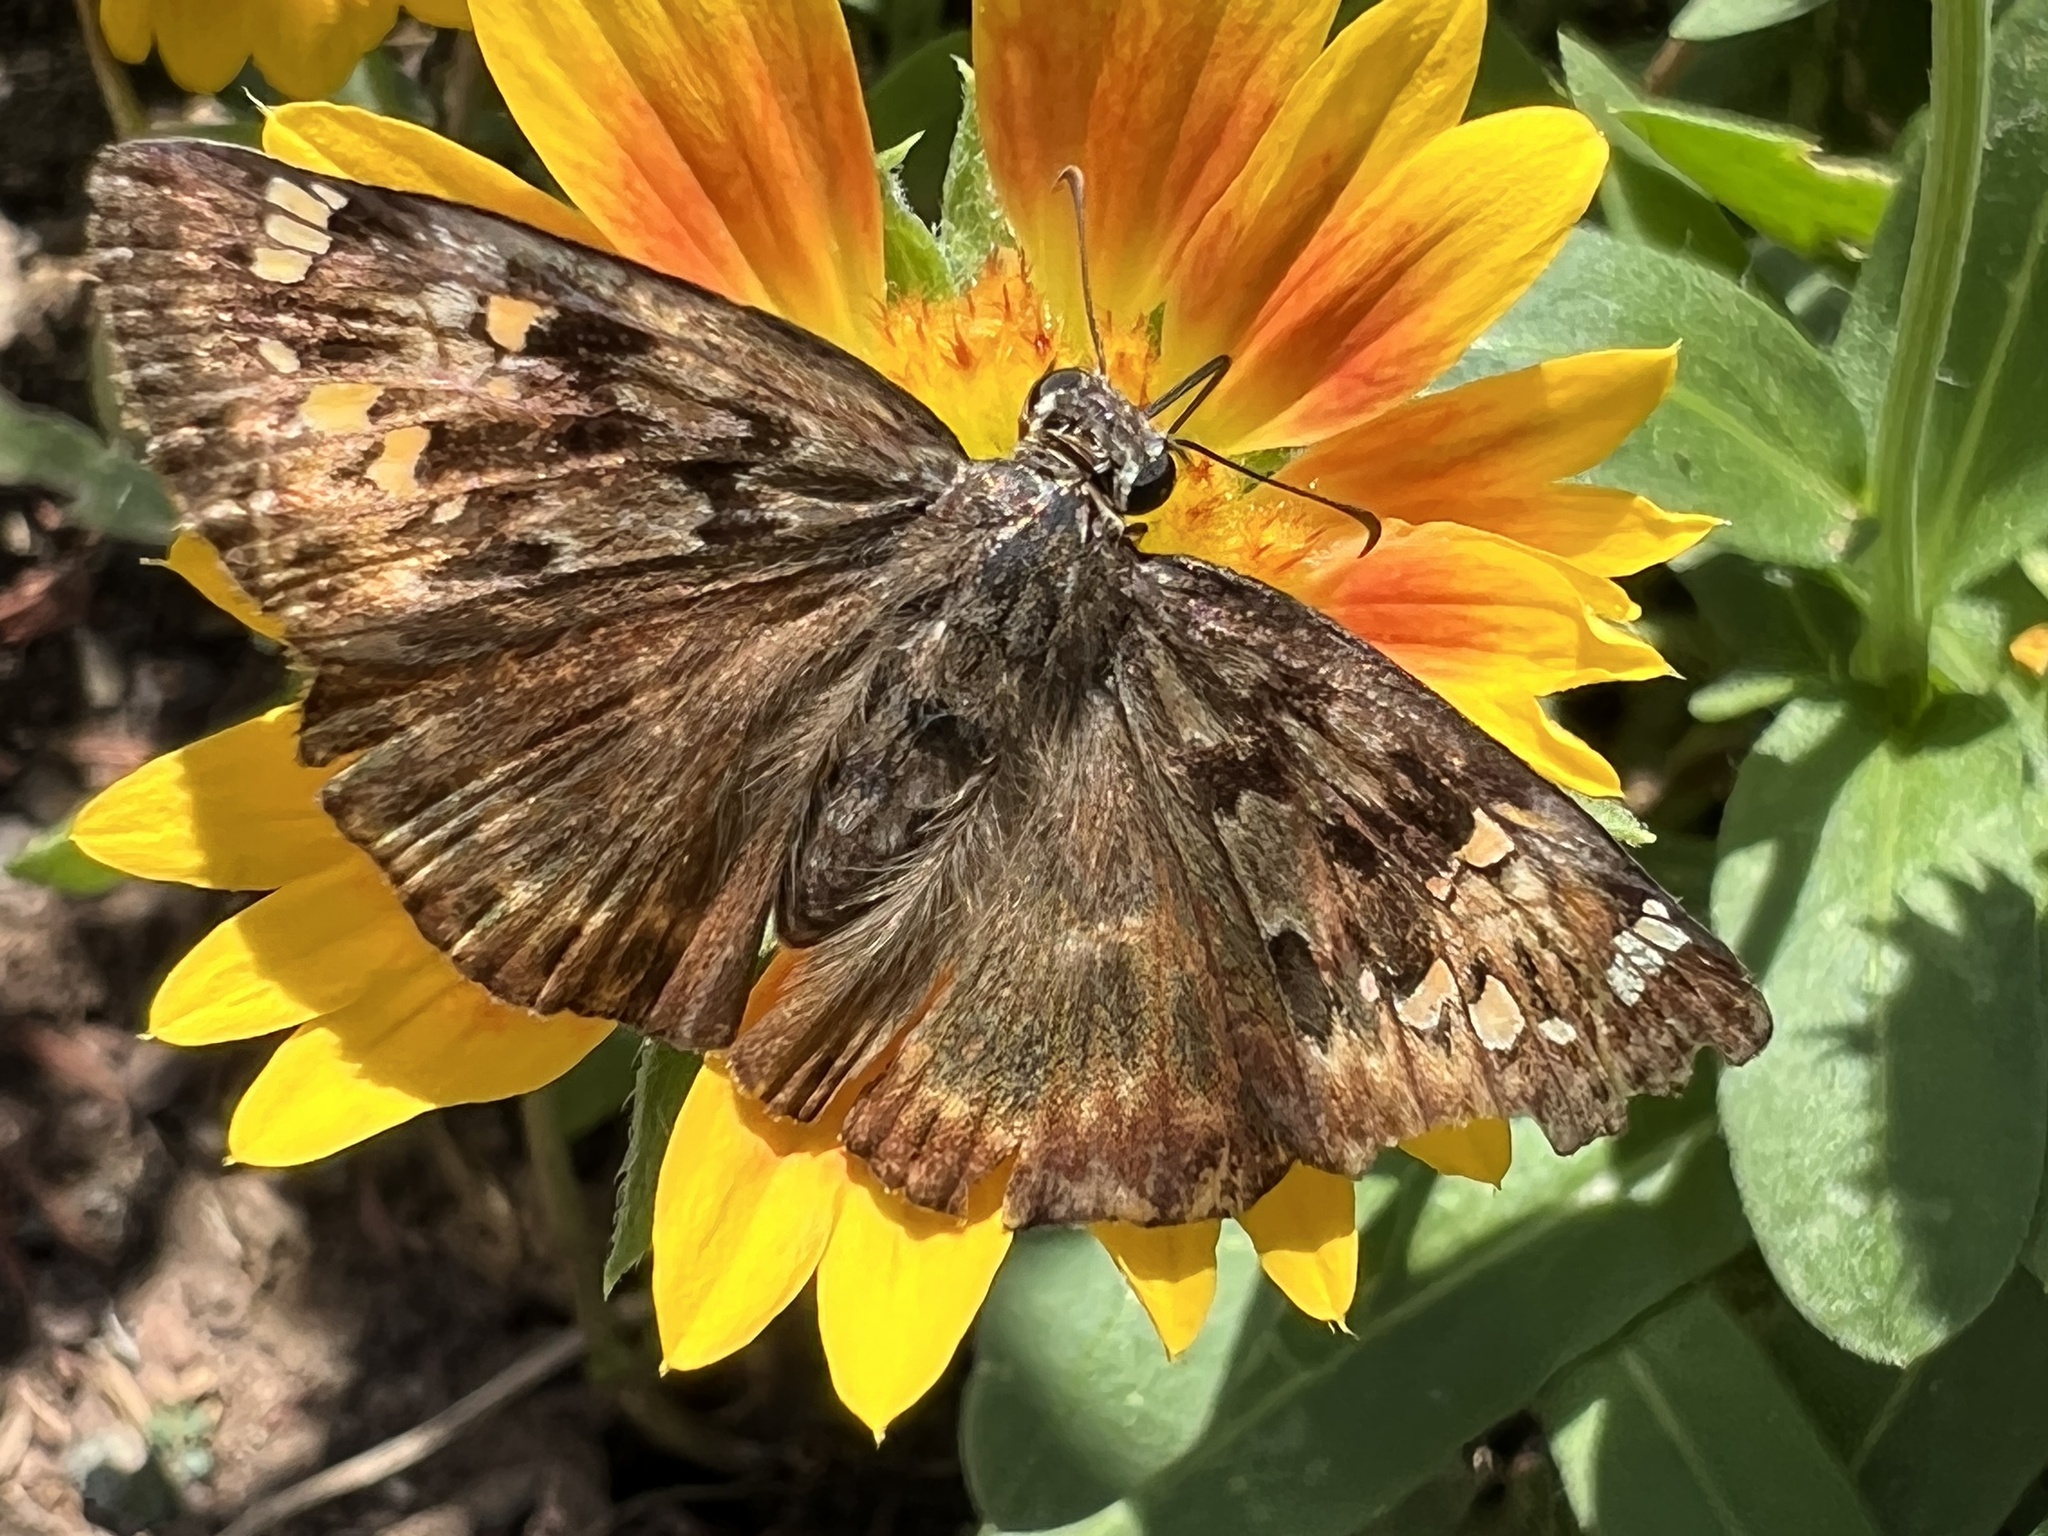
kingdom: Animalia
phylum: Arthropoda
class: Insecta
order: Lepidoptera
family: Hesperiidae
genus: Erynnis
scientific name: Erynnis horatius
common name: Horace's duskywing
